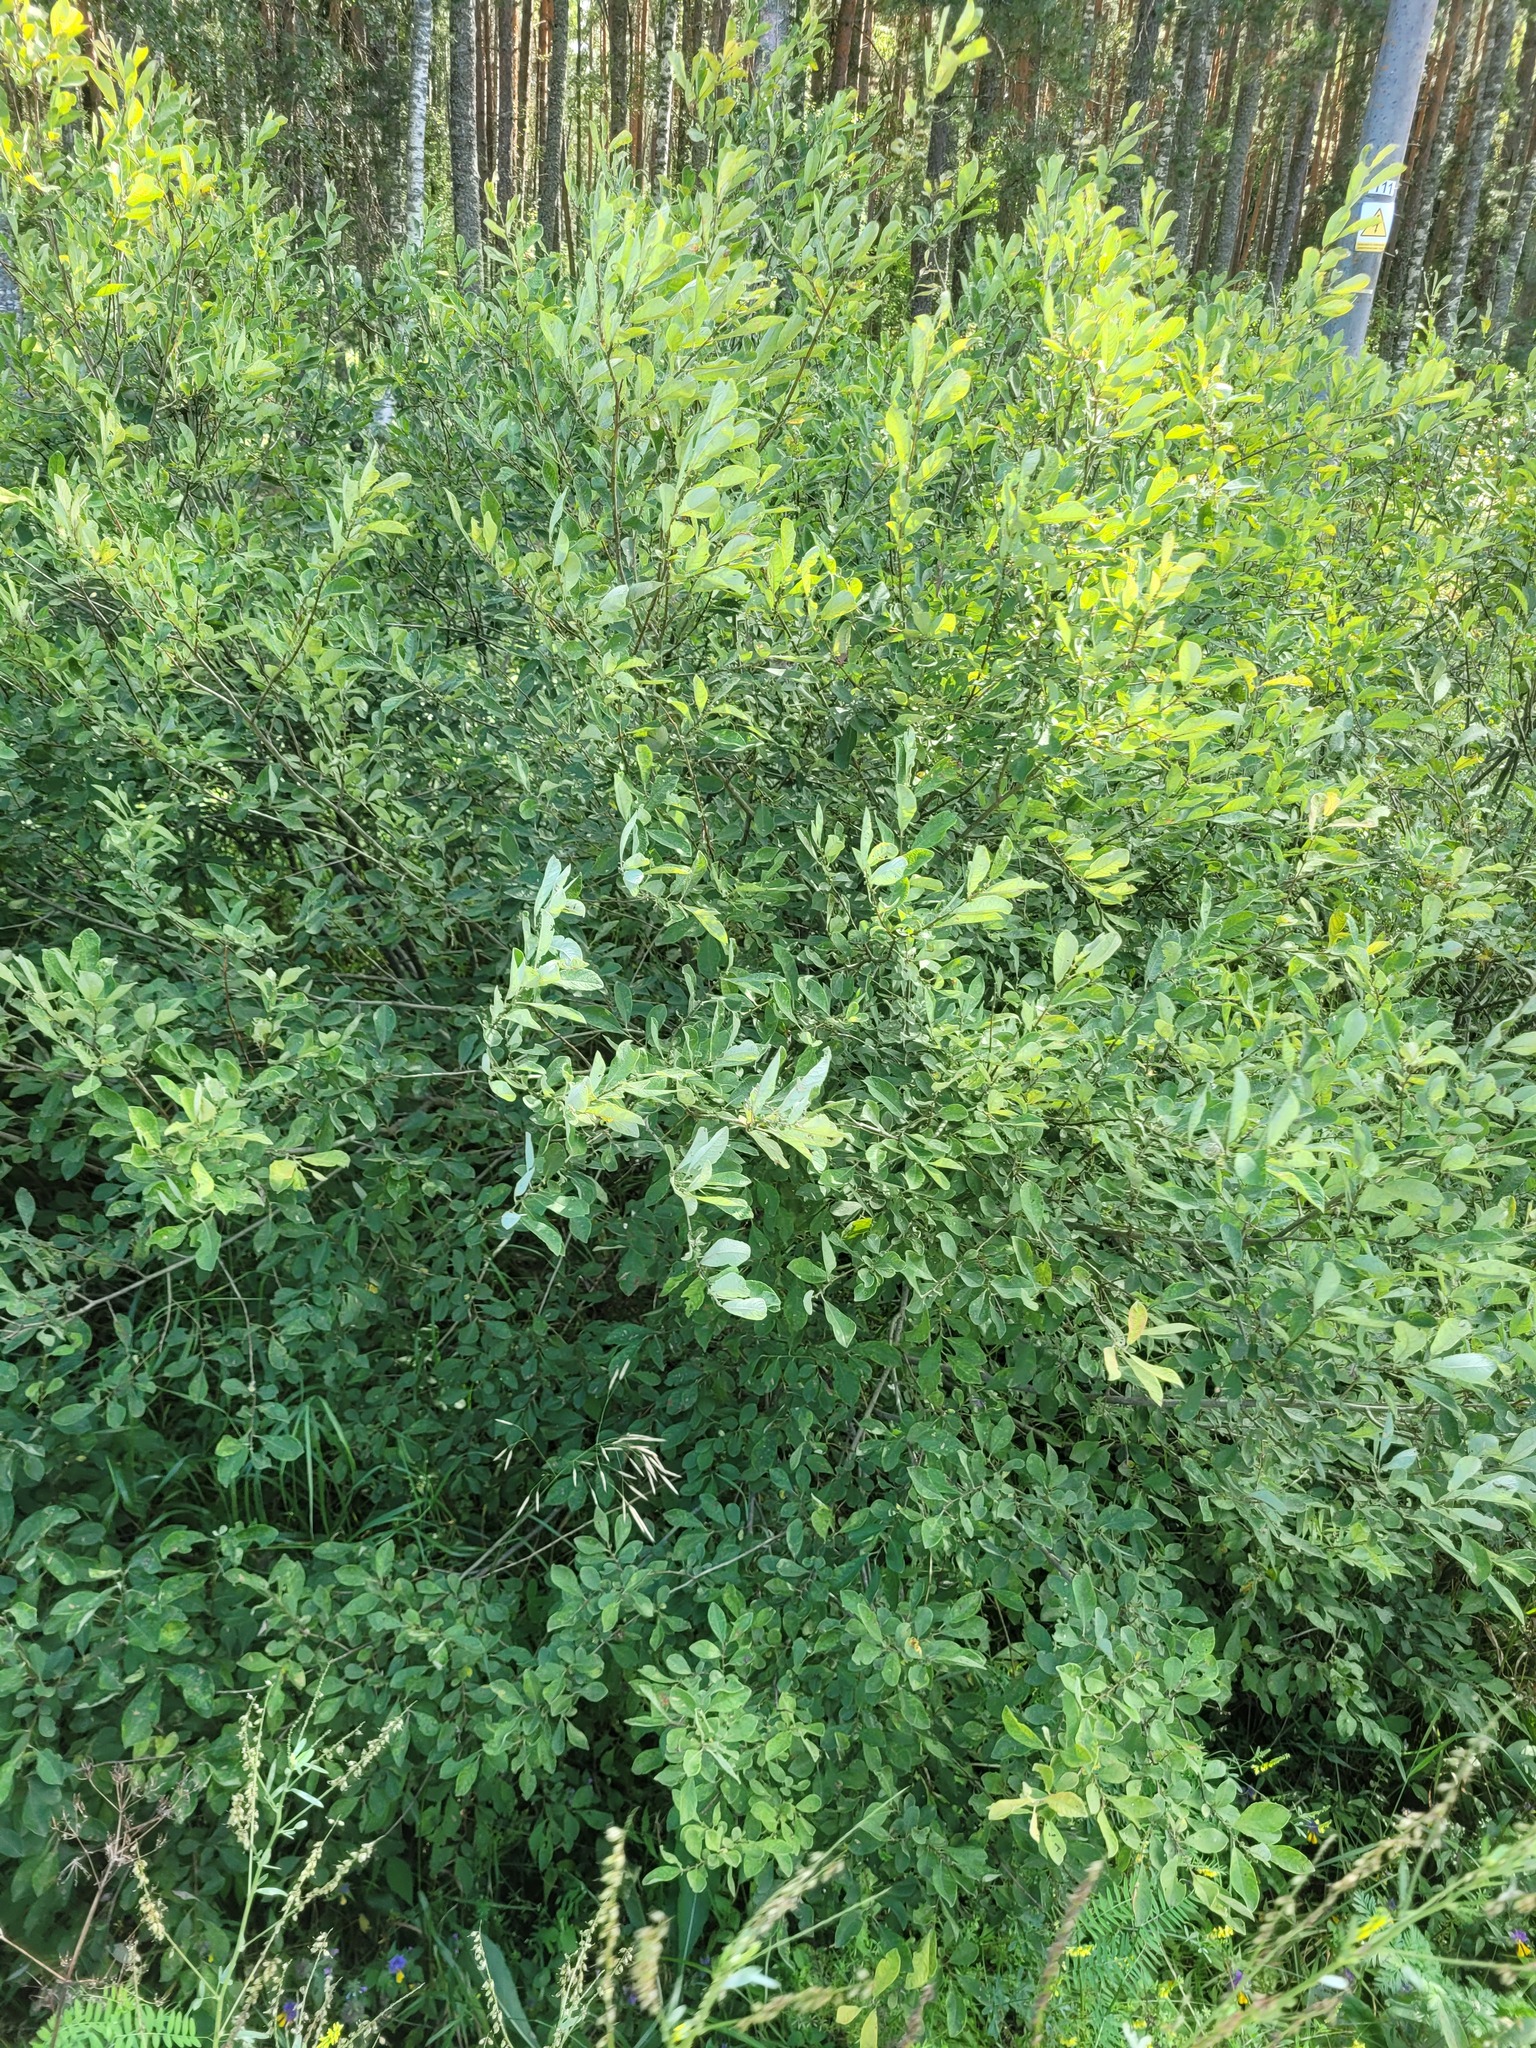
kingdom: Plantae
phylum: Tracheophyta
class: Magnoliopsida
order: Malpighiales
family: Salicaceae
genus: Salix
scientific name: Salix aurita
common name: Eared willow
